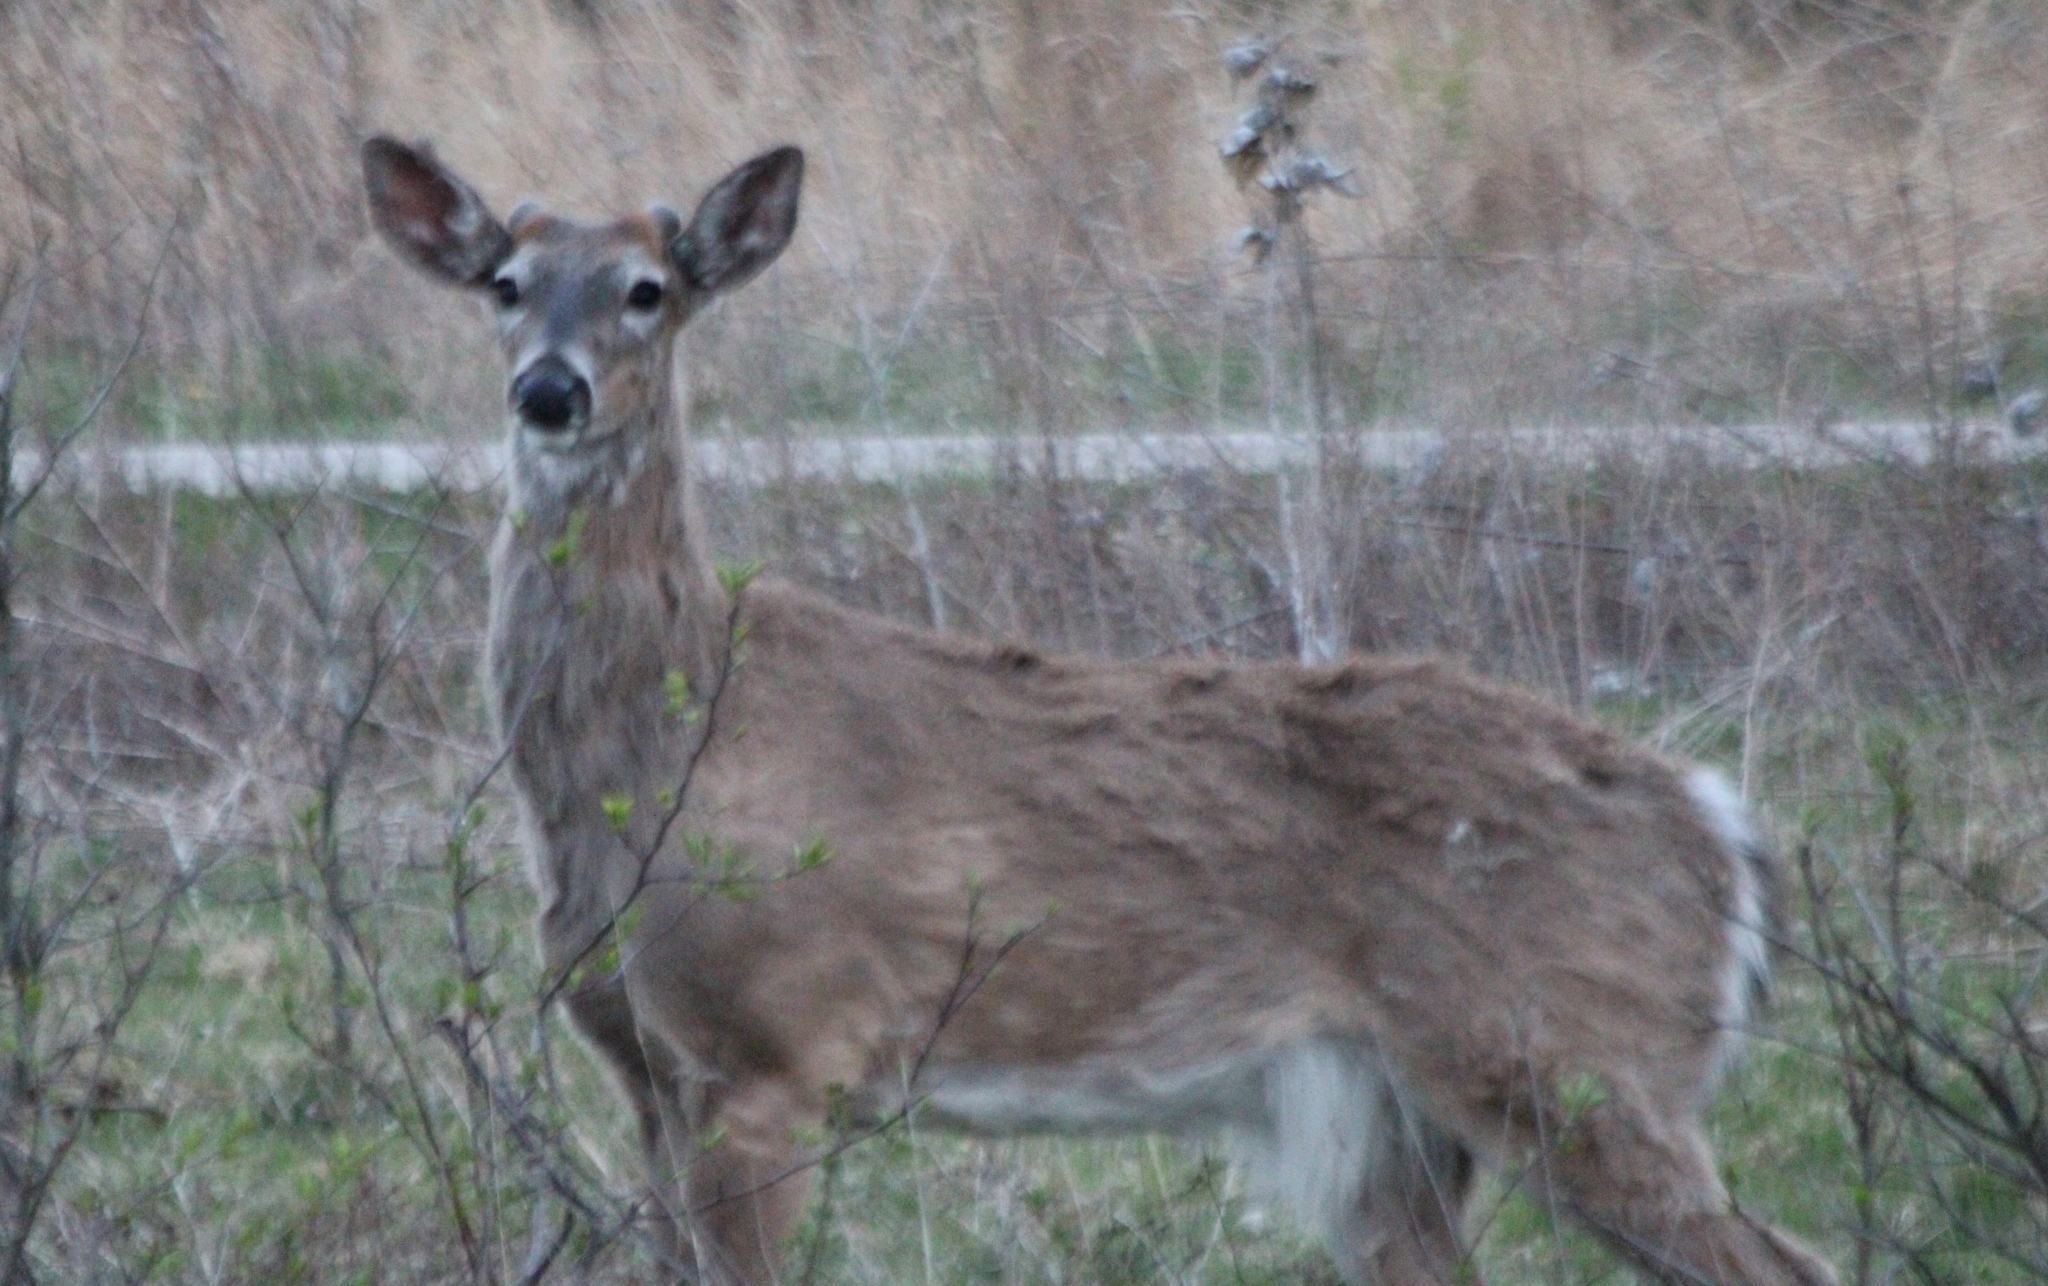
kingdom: Animalia
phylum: Chordata
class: Mammalia
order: Artiodactyla
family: Cervidae
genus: Odocoileus
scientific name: Odocoileus virginianus
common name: White-tailed deer
